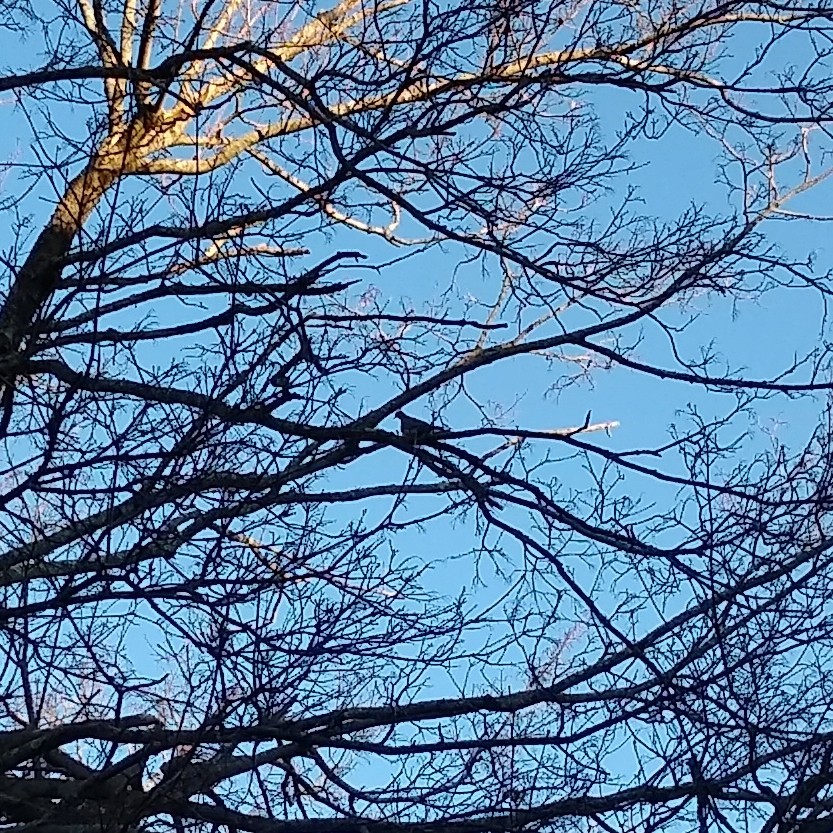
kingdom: Animalia
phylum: Chordata
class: Aves
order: Columbiformes
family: Columbidae
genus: Zenaida
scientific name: Zenaida macroura
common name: Mourning dove
